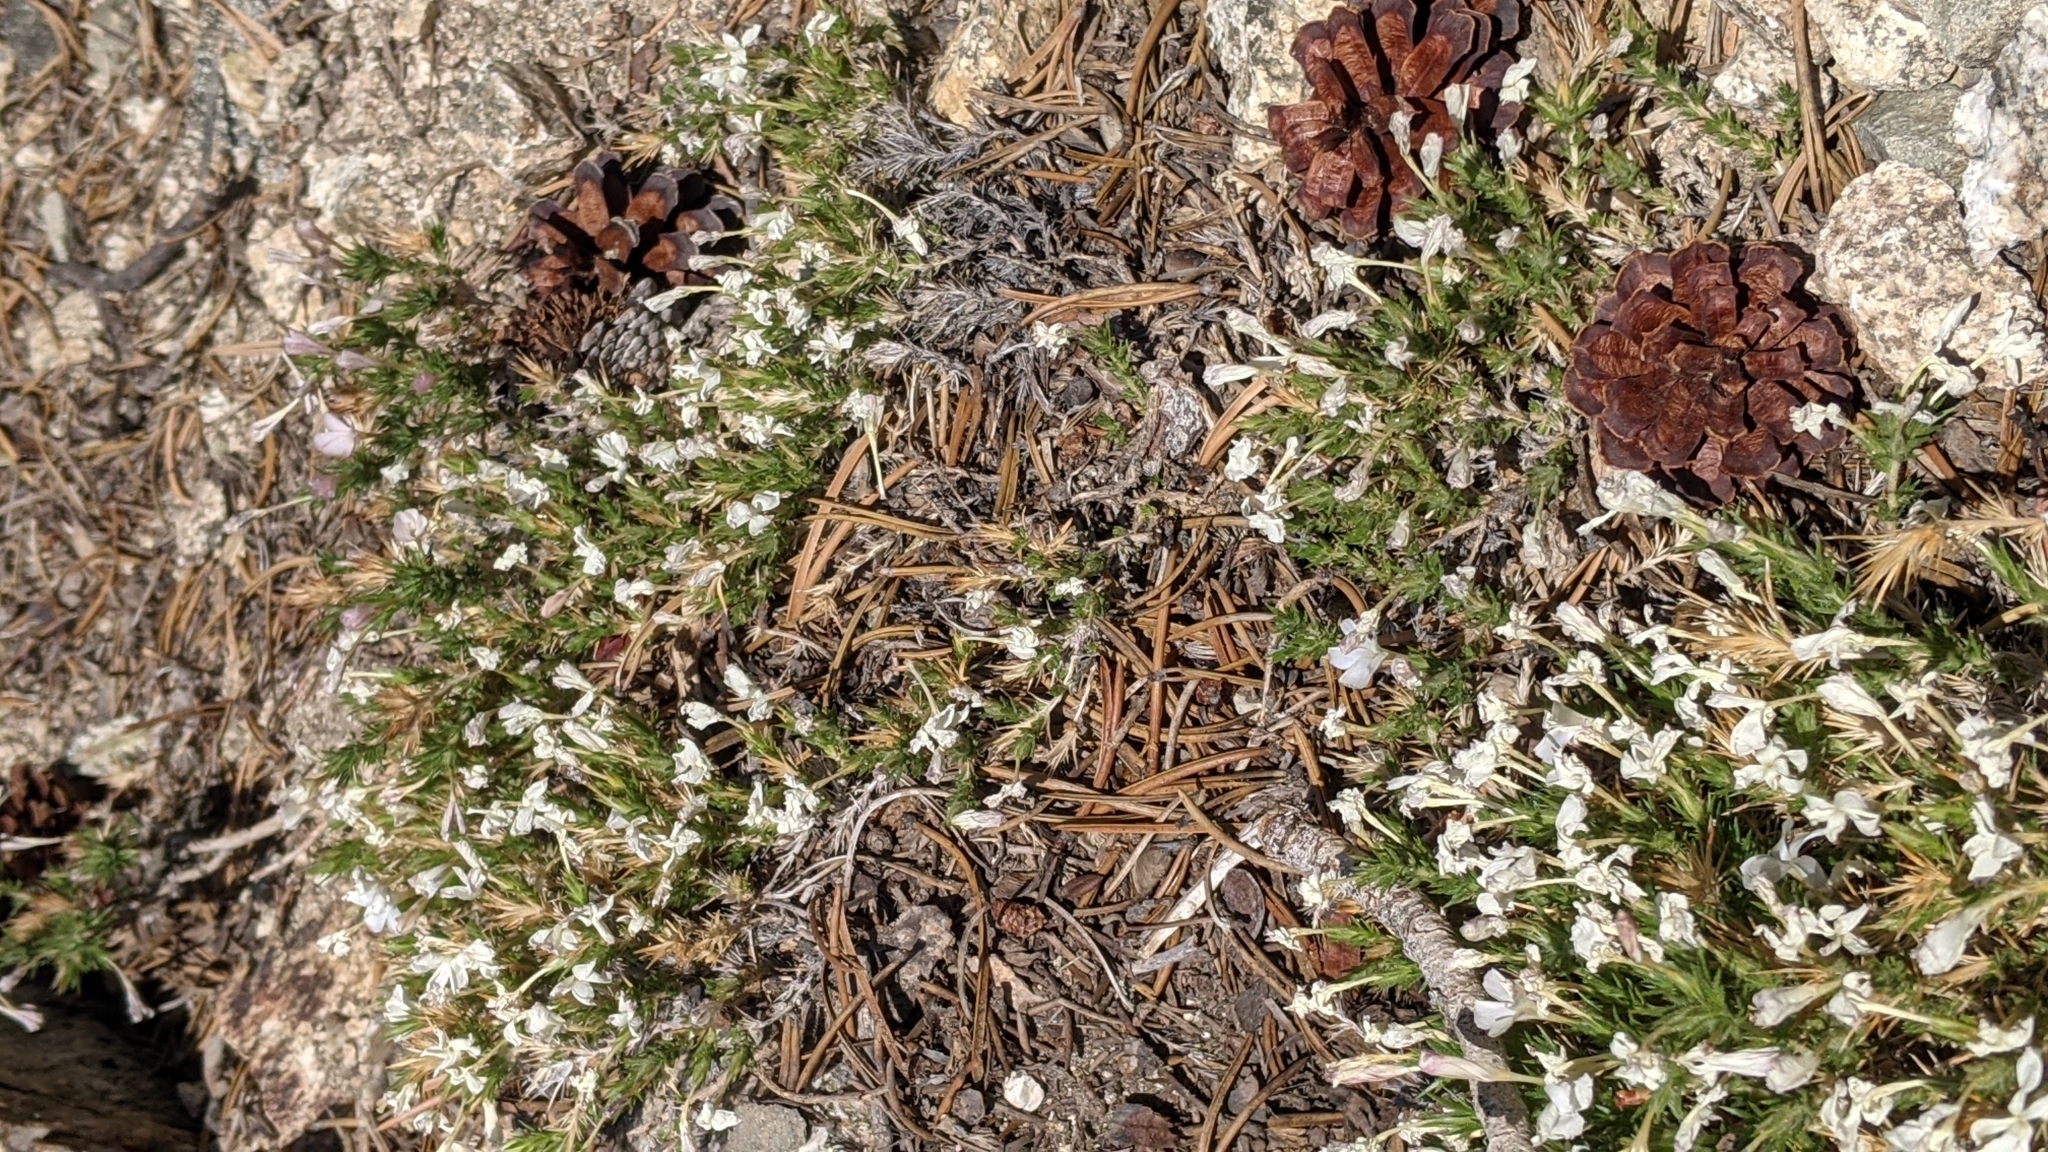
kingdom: Plantae
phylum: Tracheophyta
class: Magnoliopsida
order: Ericales
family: Polemoniaceae
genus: Linanthus
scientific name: Linanthus pungens
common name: Granite prickly phlox
